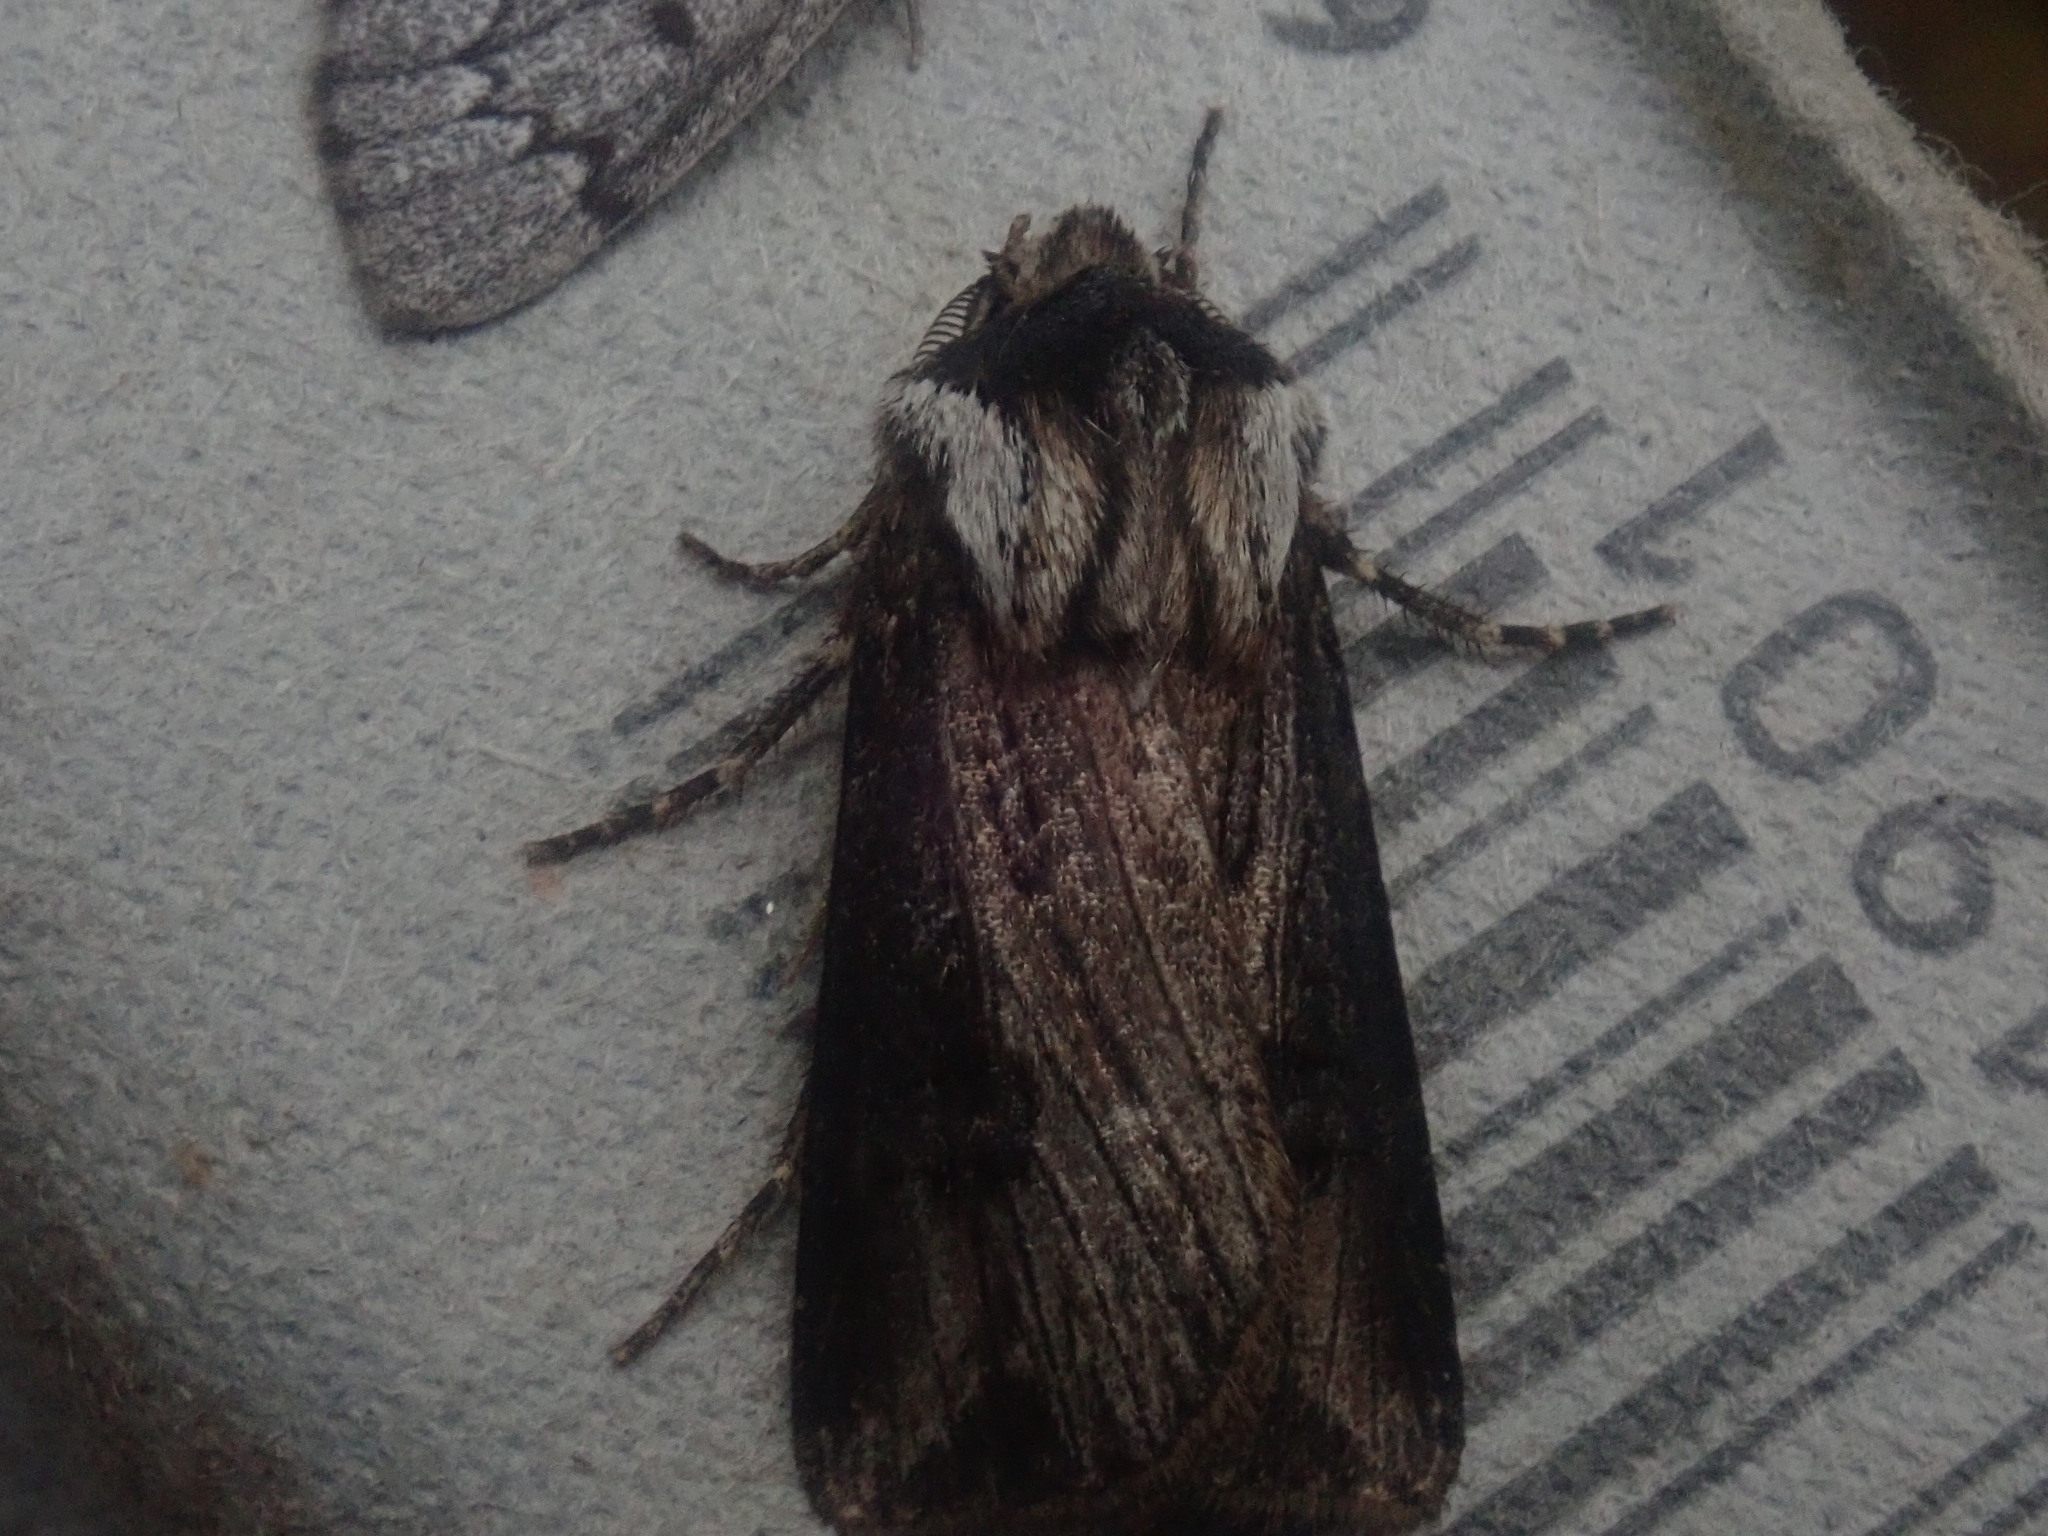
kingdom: Animalia
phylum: Arthropoda
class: Insecta
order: Lepidoptera
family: Noctuidae
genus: Agrotis
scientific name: Agrotis venerabilis
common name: Venerable dart
